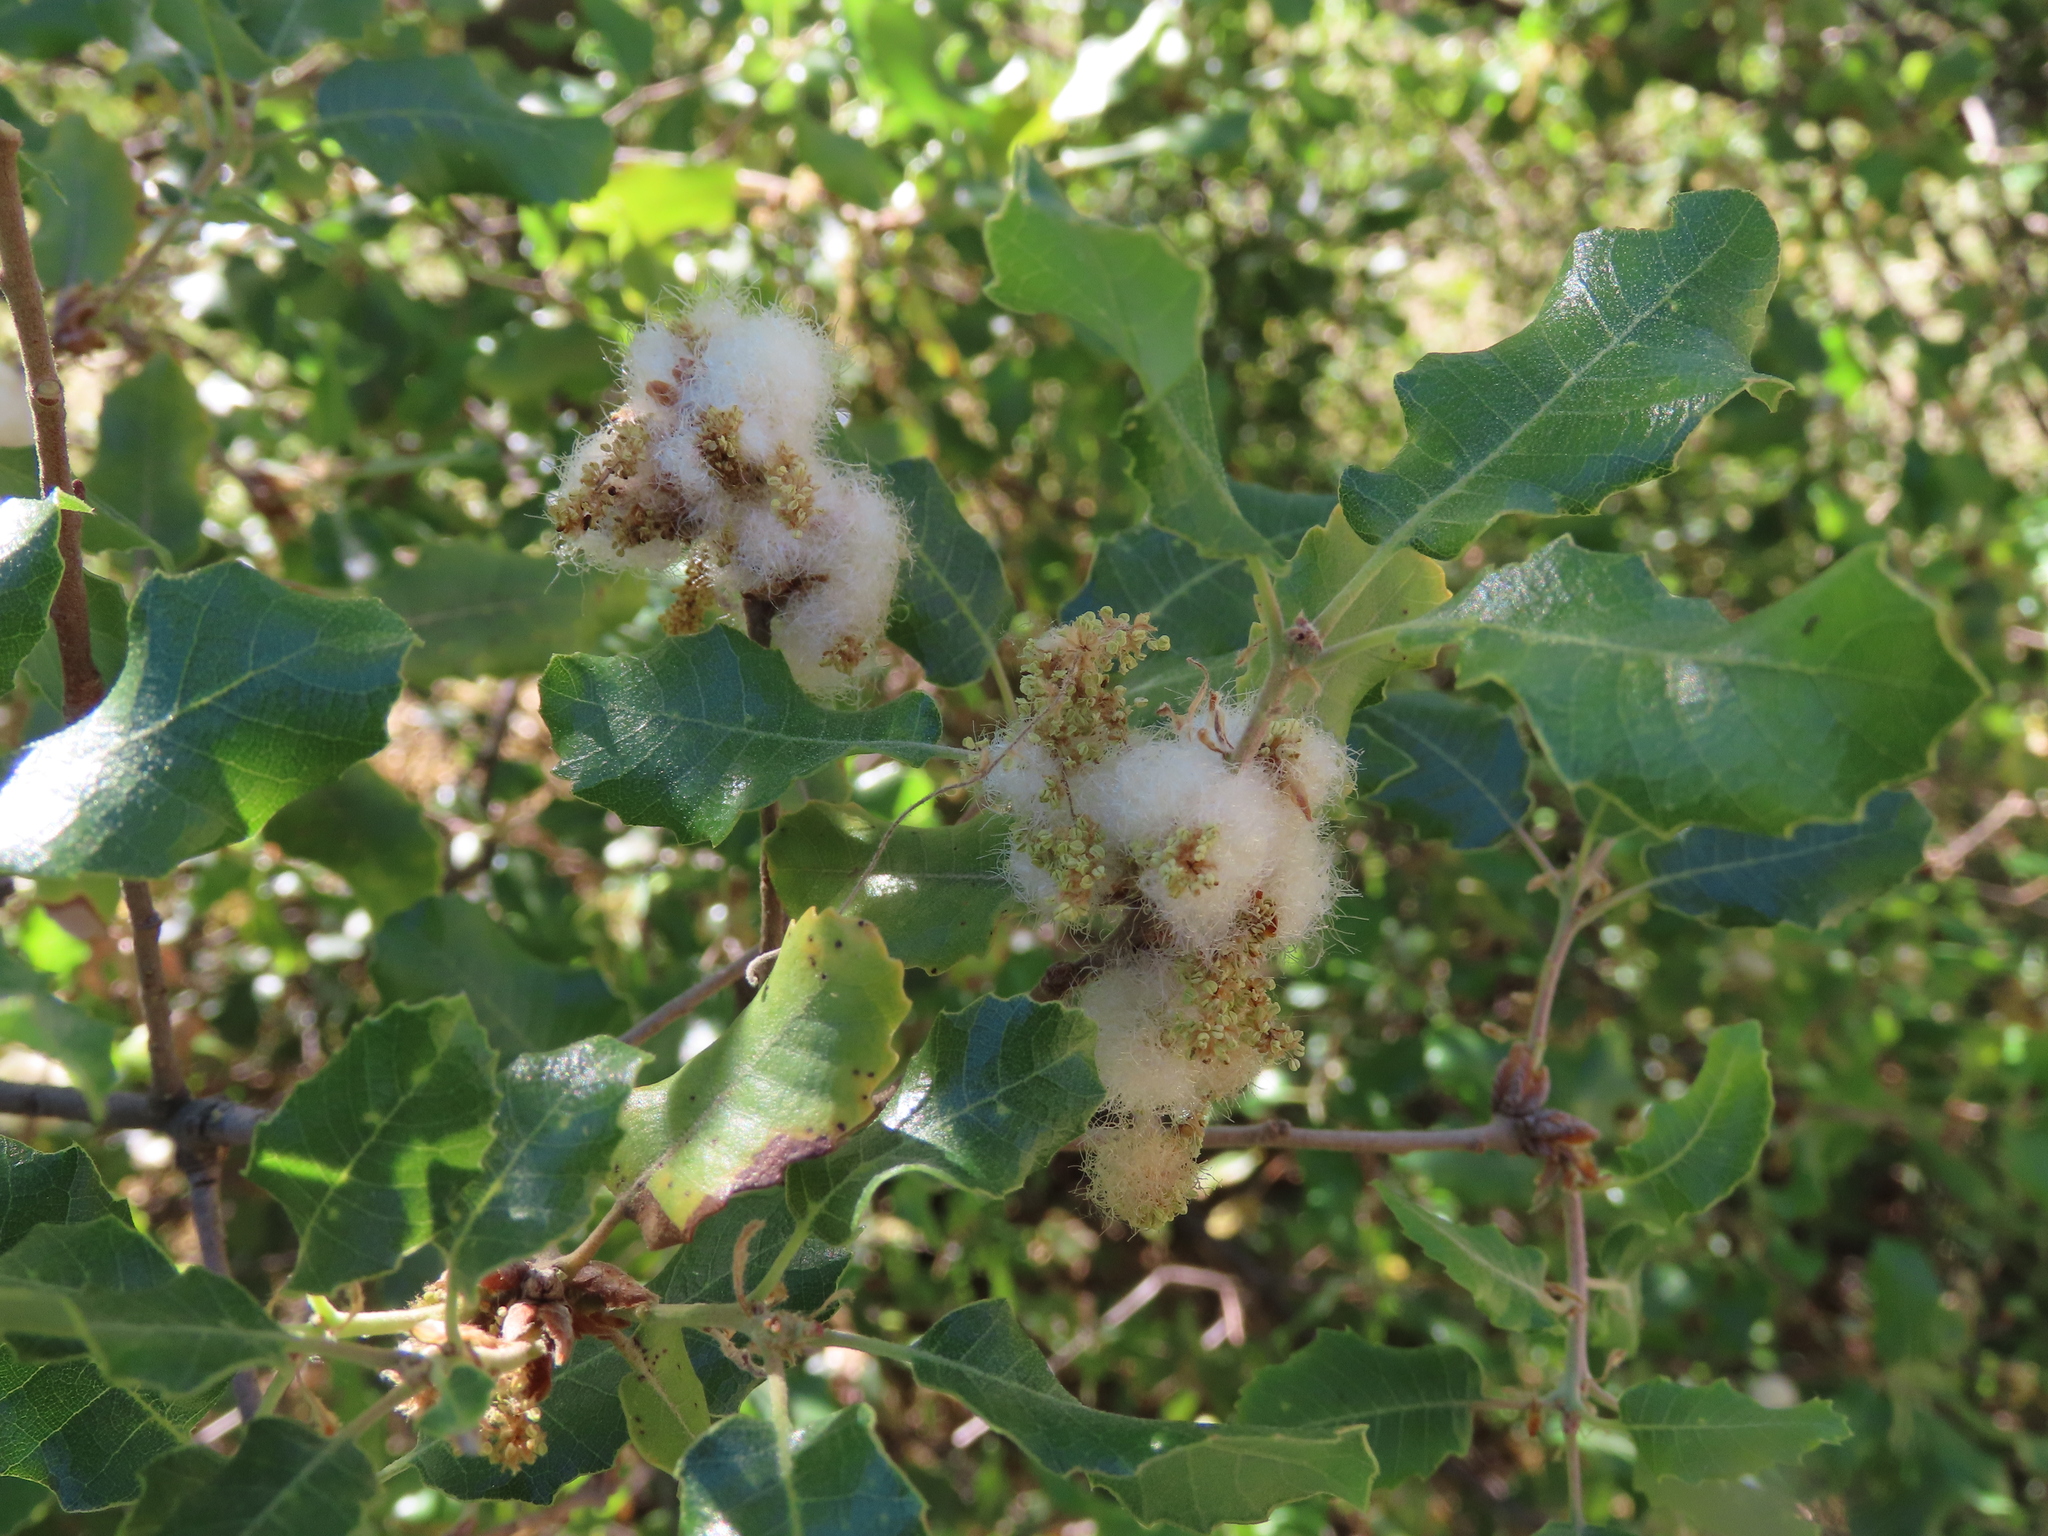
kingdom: Animalia
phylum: Arthropoda
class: Insecta
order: Hymenoptera
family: Cynipidae
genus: Andricus
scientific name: Andricus quercusramuli
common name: Cottonwool gall
